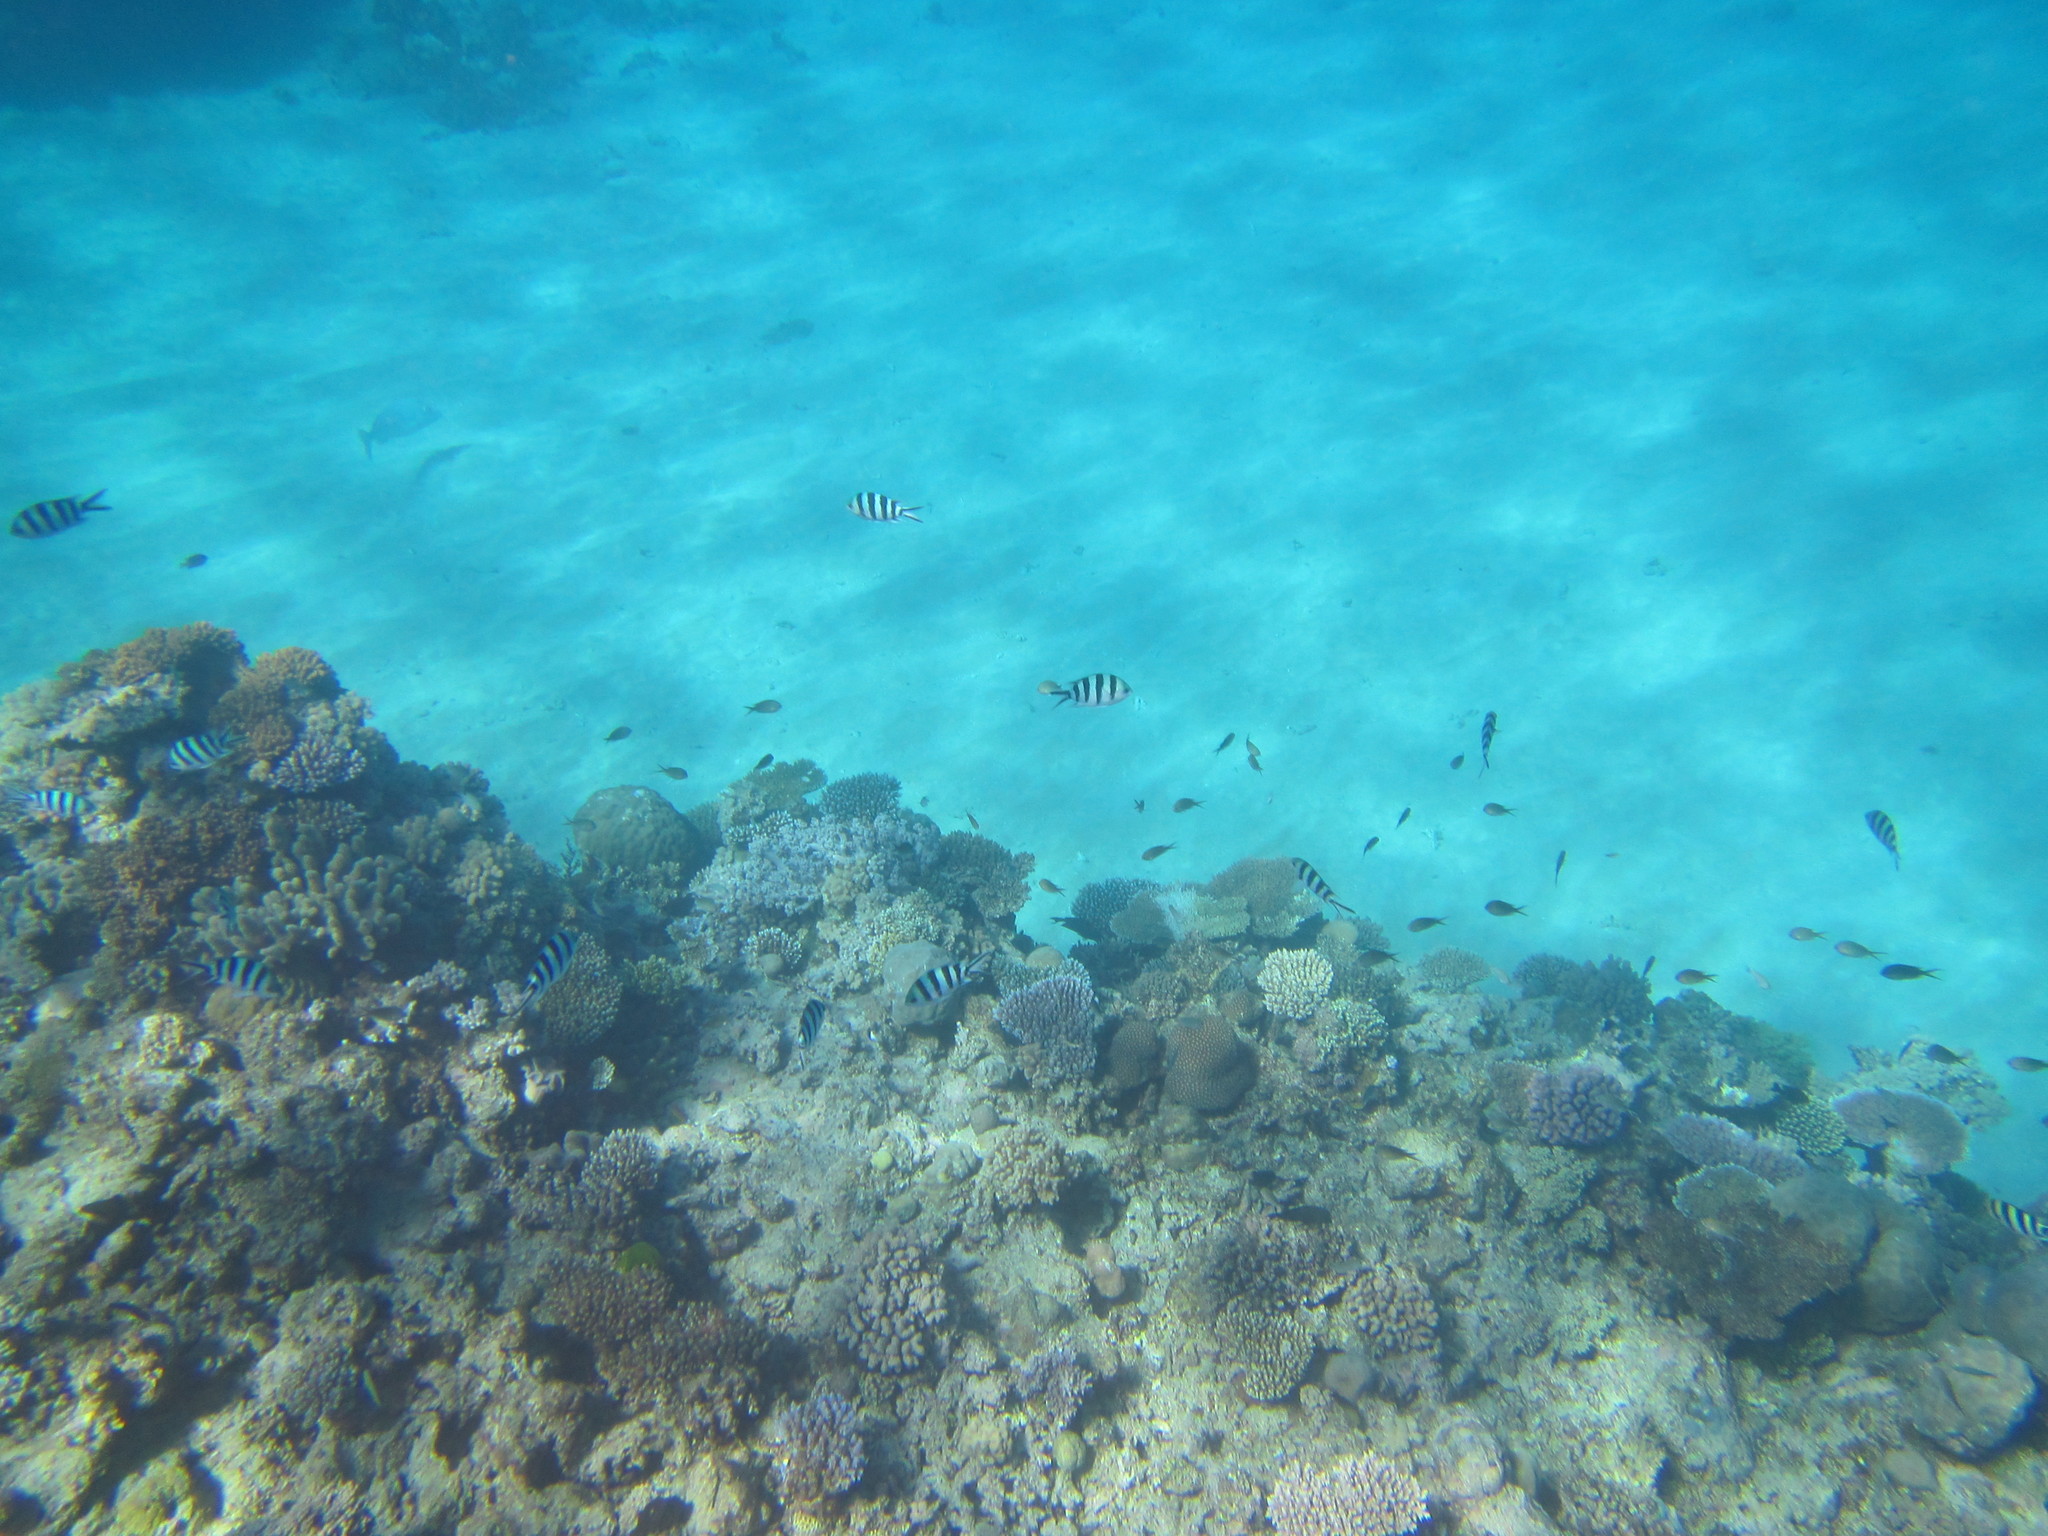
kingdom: Animalia
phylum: Chordata
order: Perciformes
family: Pomacentridae
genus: Abudefduf
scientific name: Abudefduf sexfasciatus
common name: Scissortail sergeant
